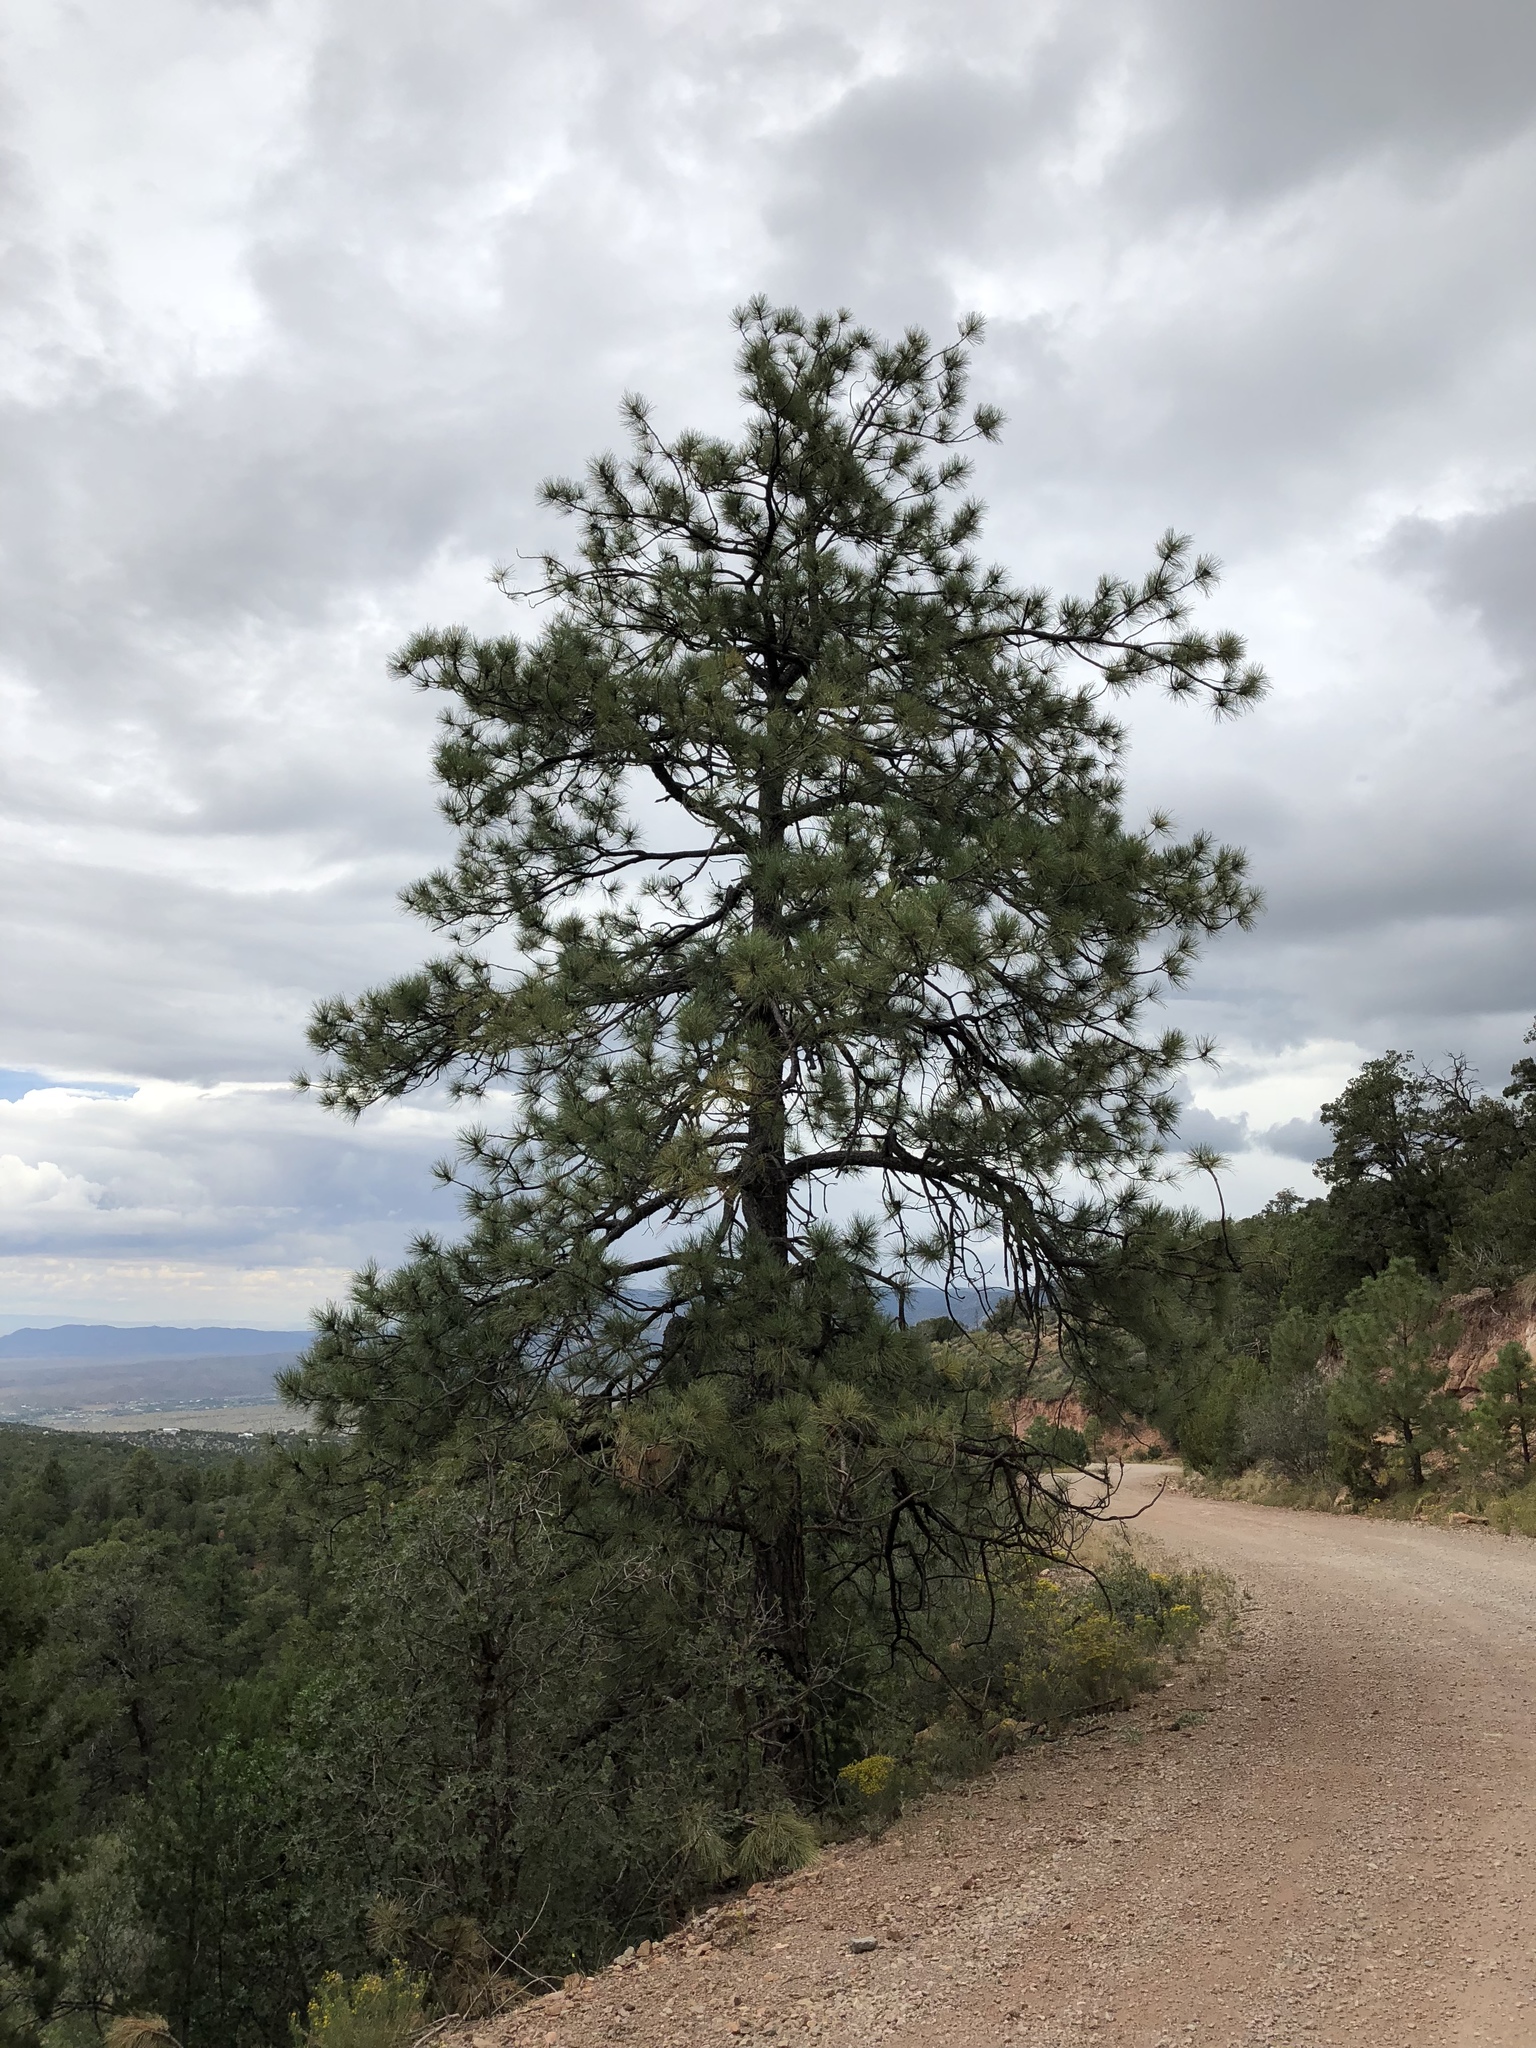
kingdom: Plantae
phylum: Tracheophyta
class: Pinopsida
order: Pinales
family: Pinaceae
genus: Pinus
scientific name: Pinus ponderosa
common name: Western yellow-pine
